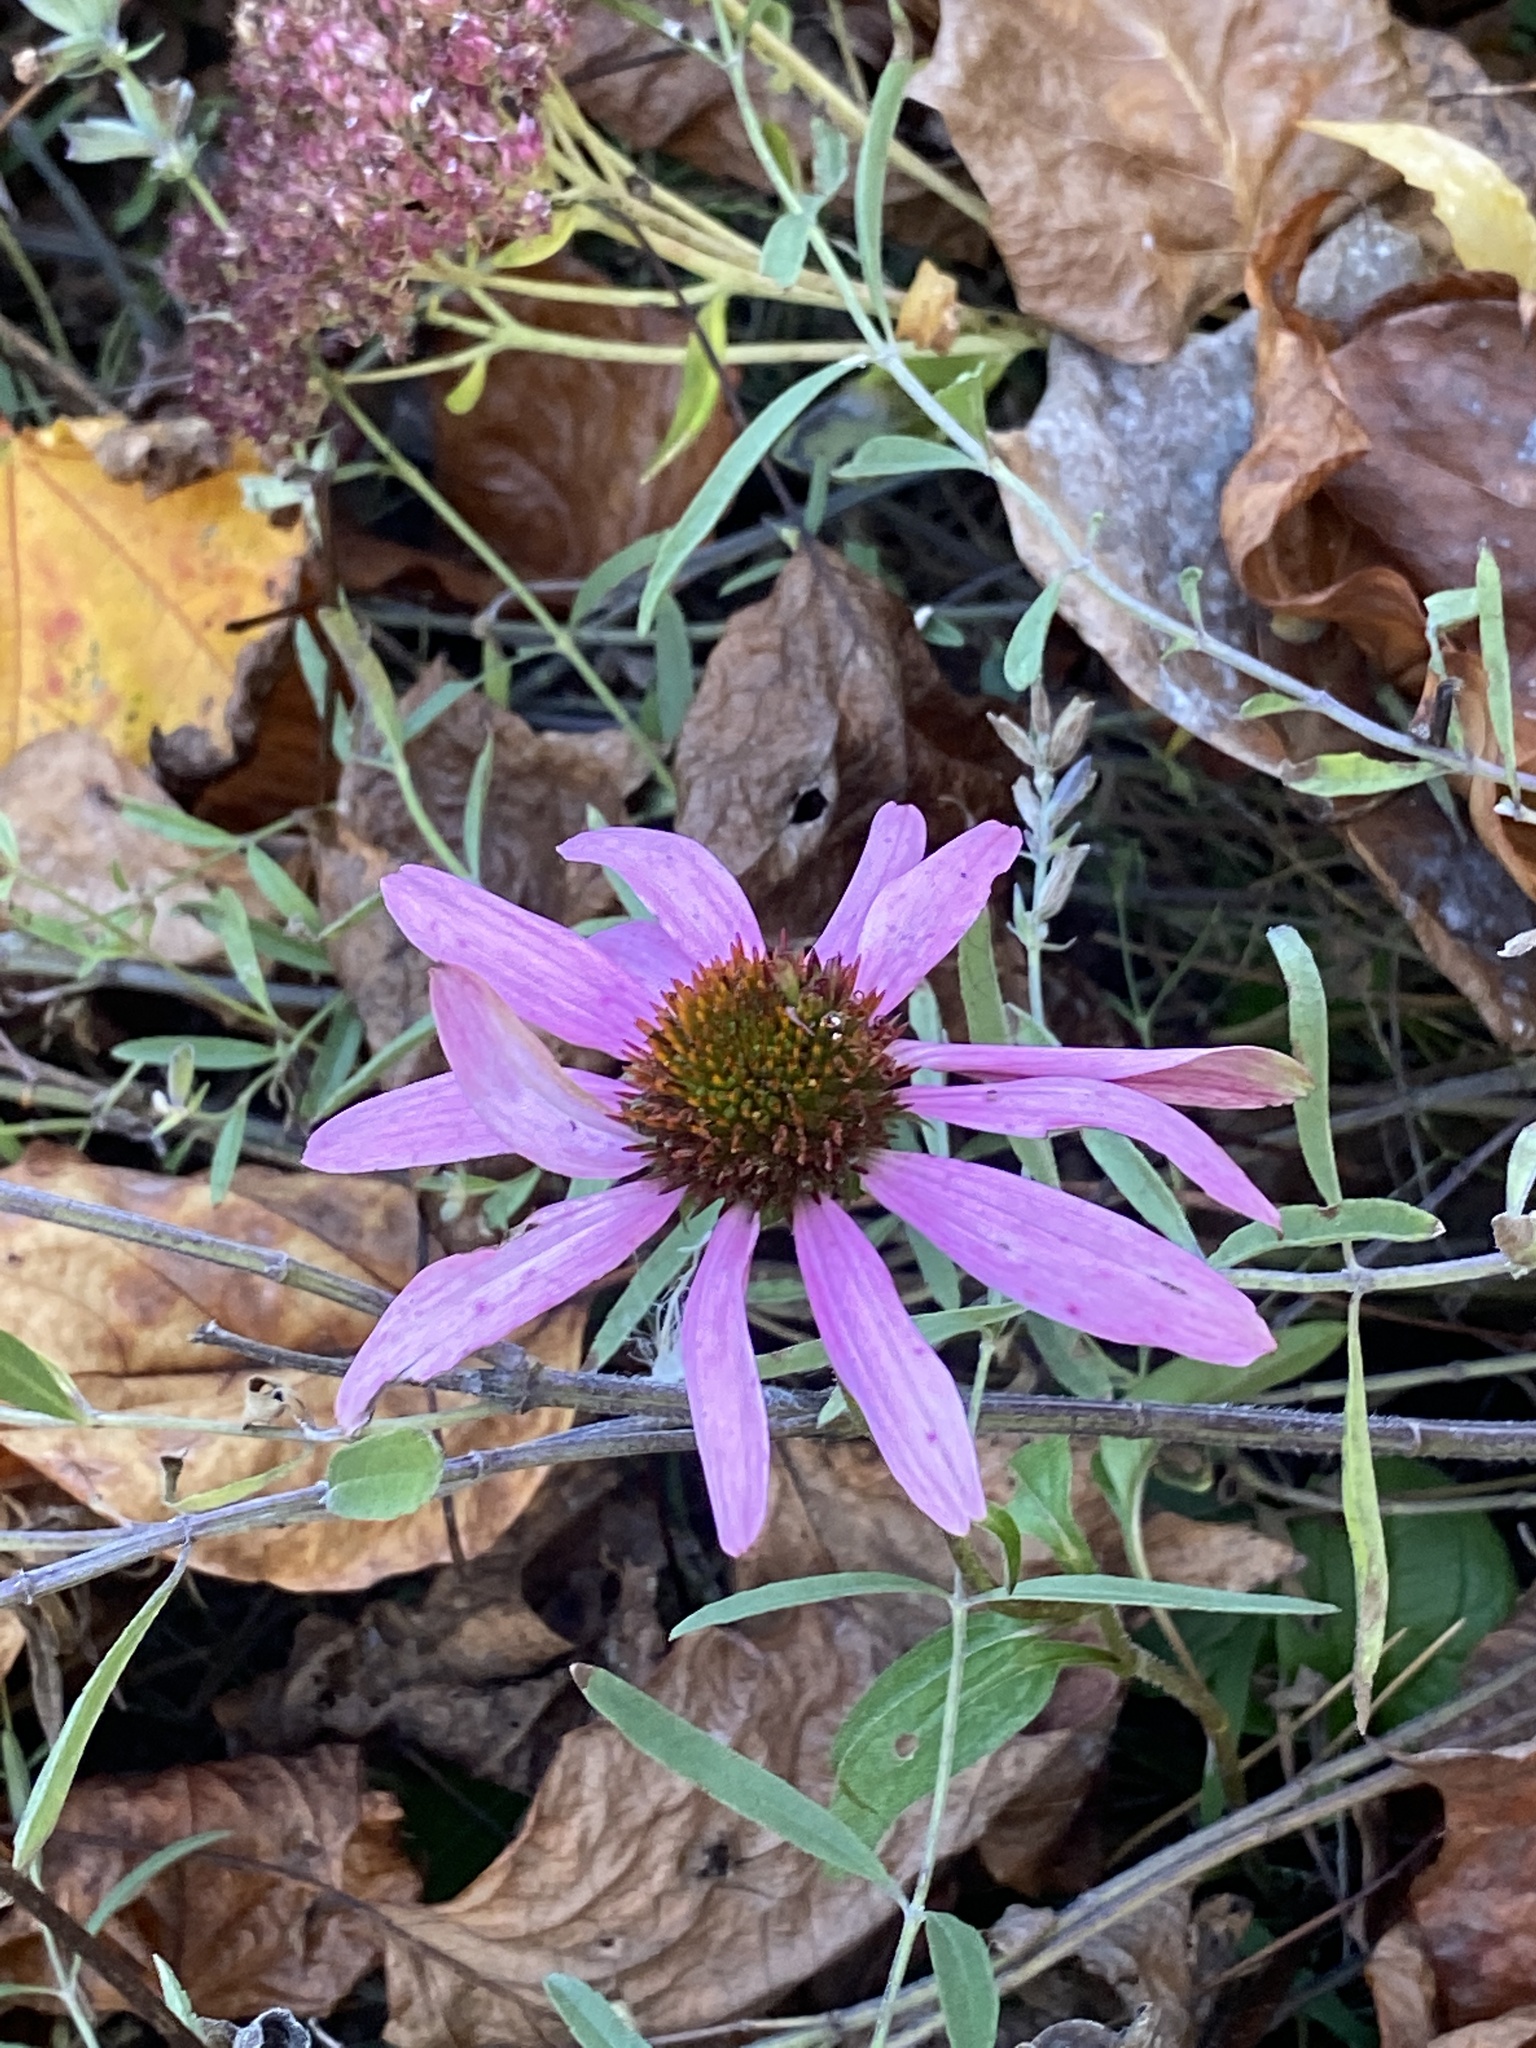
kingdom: Plantae
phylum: Tracheophyta
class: Magnoliopsida
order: Asterales
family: Asteraceae
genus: Echinacea
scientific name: Echinacea purpurea
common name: Broad-leaved purple coneflower
